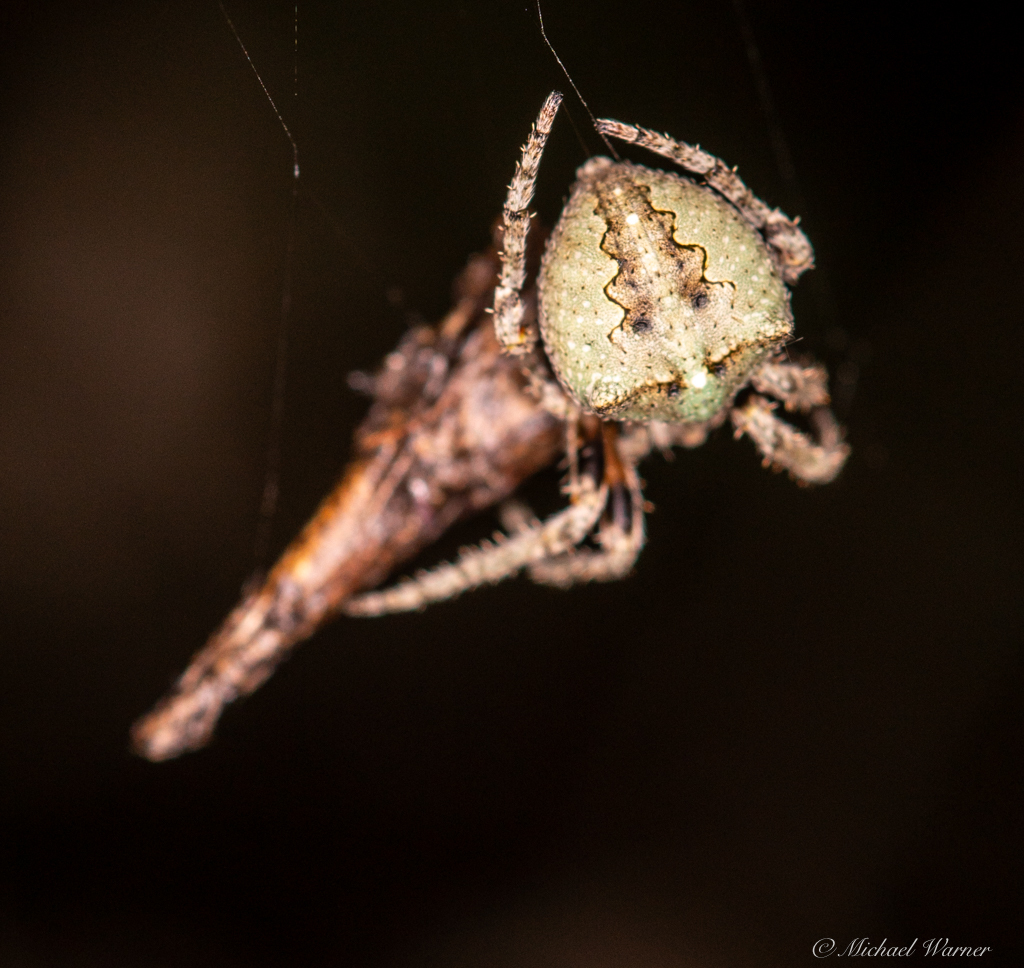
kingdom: Animalia
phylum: Arthropoda
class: Arachnida
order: Araneae
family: Araneidae
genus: Araneus
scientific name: Araneus andrewsi
